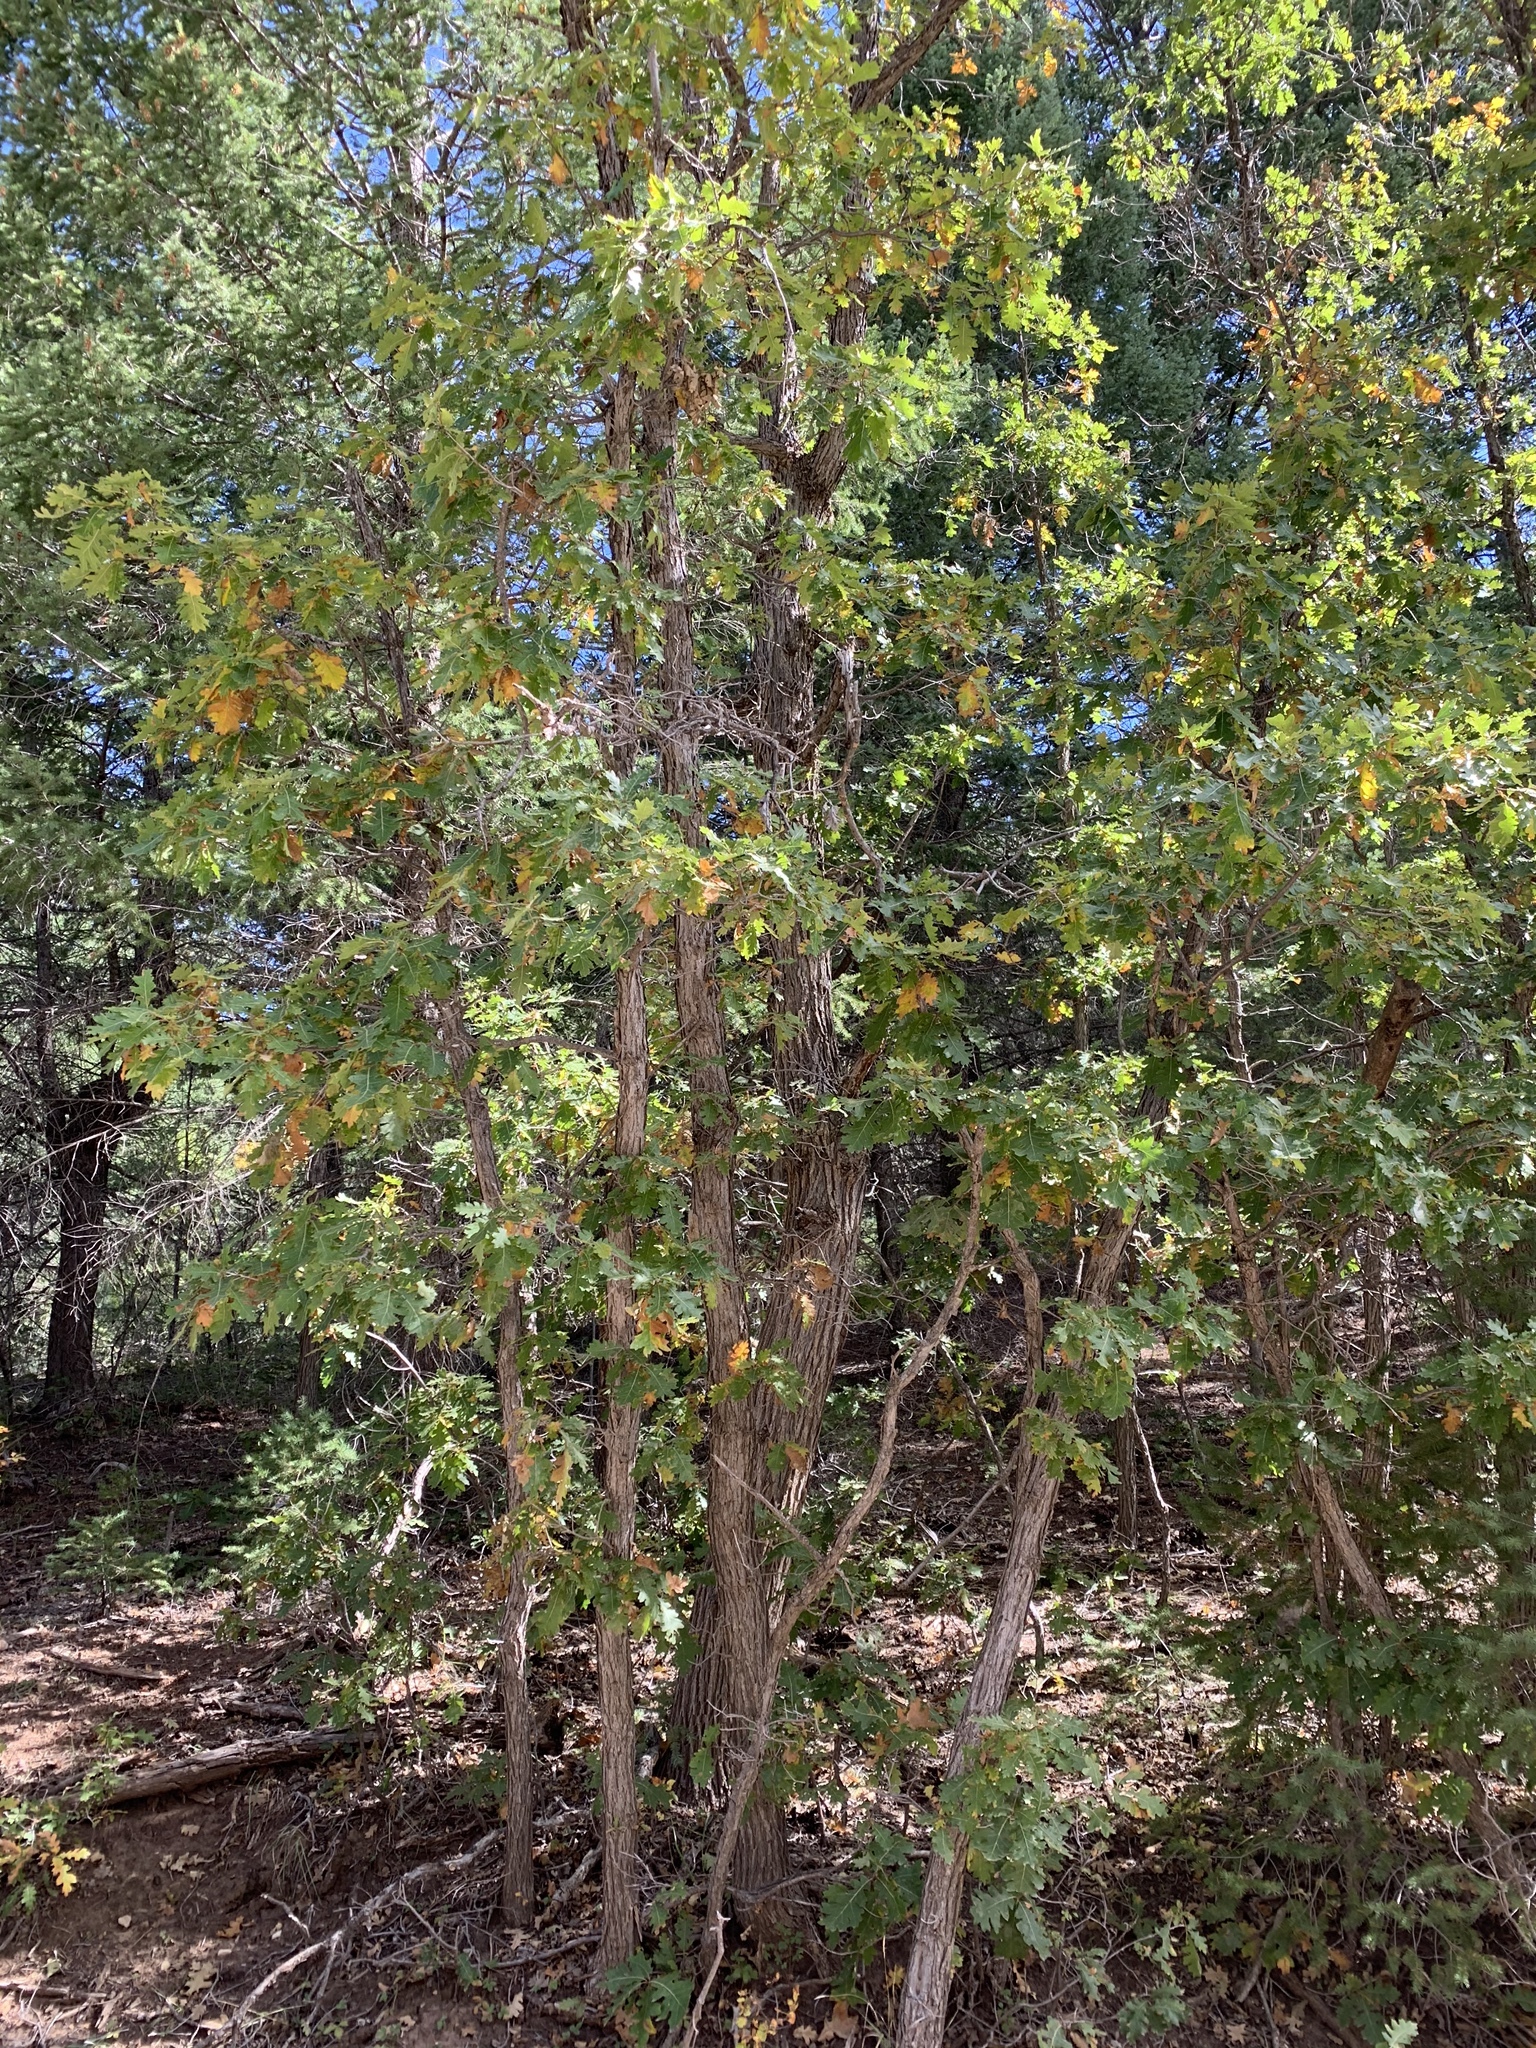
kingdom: Plantae
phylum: Tracheophyta
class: Magnoliopsida
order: Fagales
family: Fagaceae
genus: Quercus
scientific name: Quercus gambelii
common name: Gambel oak
